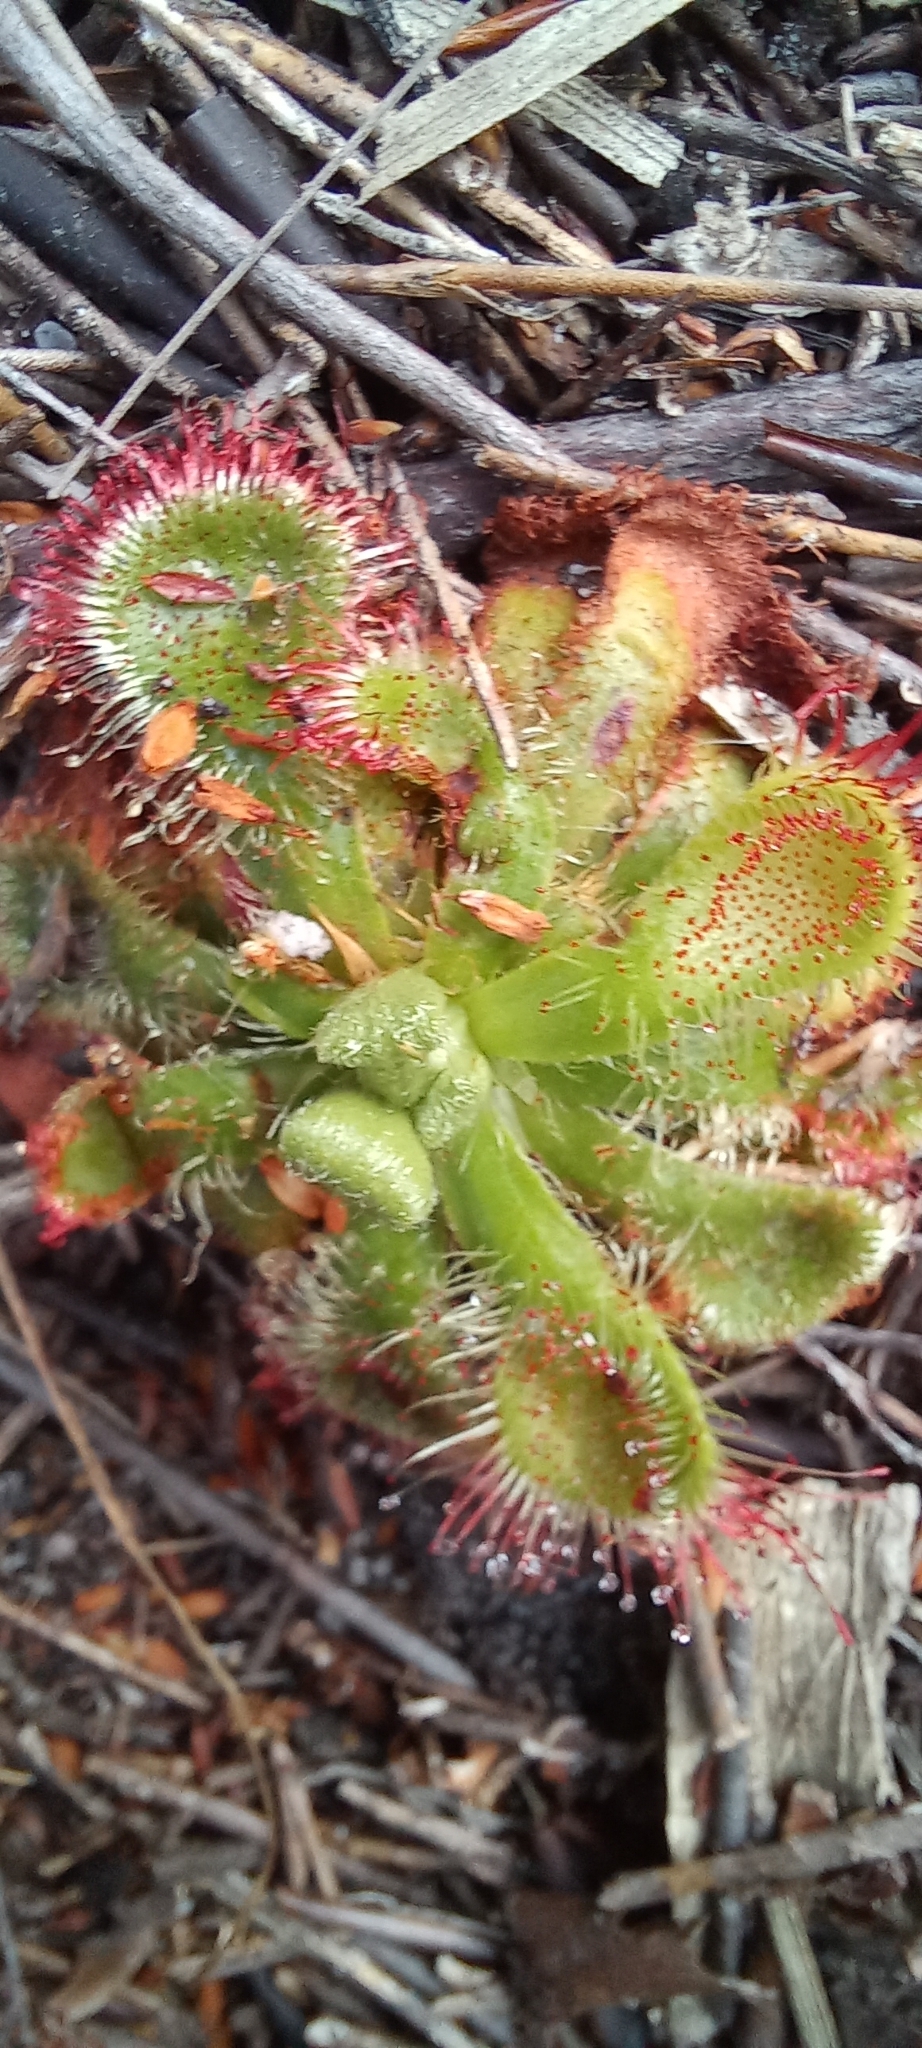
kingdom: Plantae
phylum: Tracheophyta
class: Magnoliopsida
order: Caryophyllales
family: Droseraceae
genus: Drosera
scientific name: Drosera xerophila
